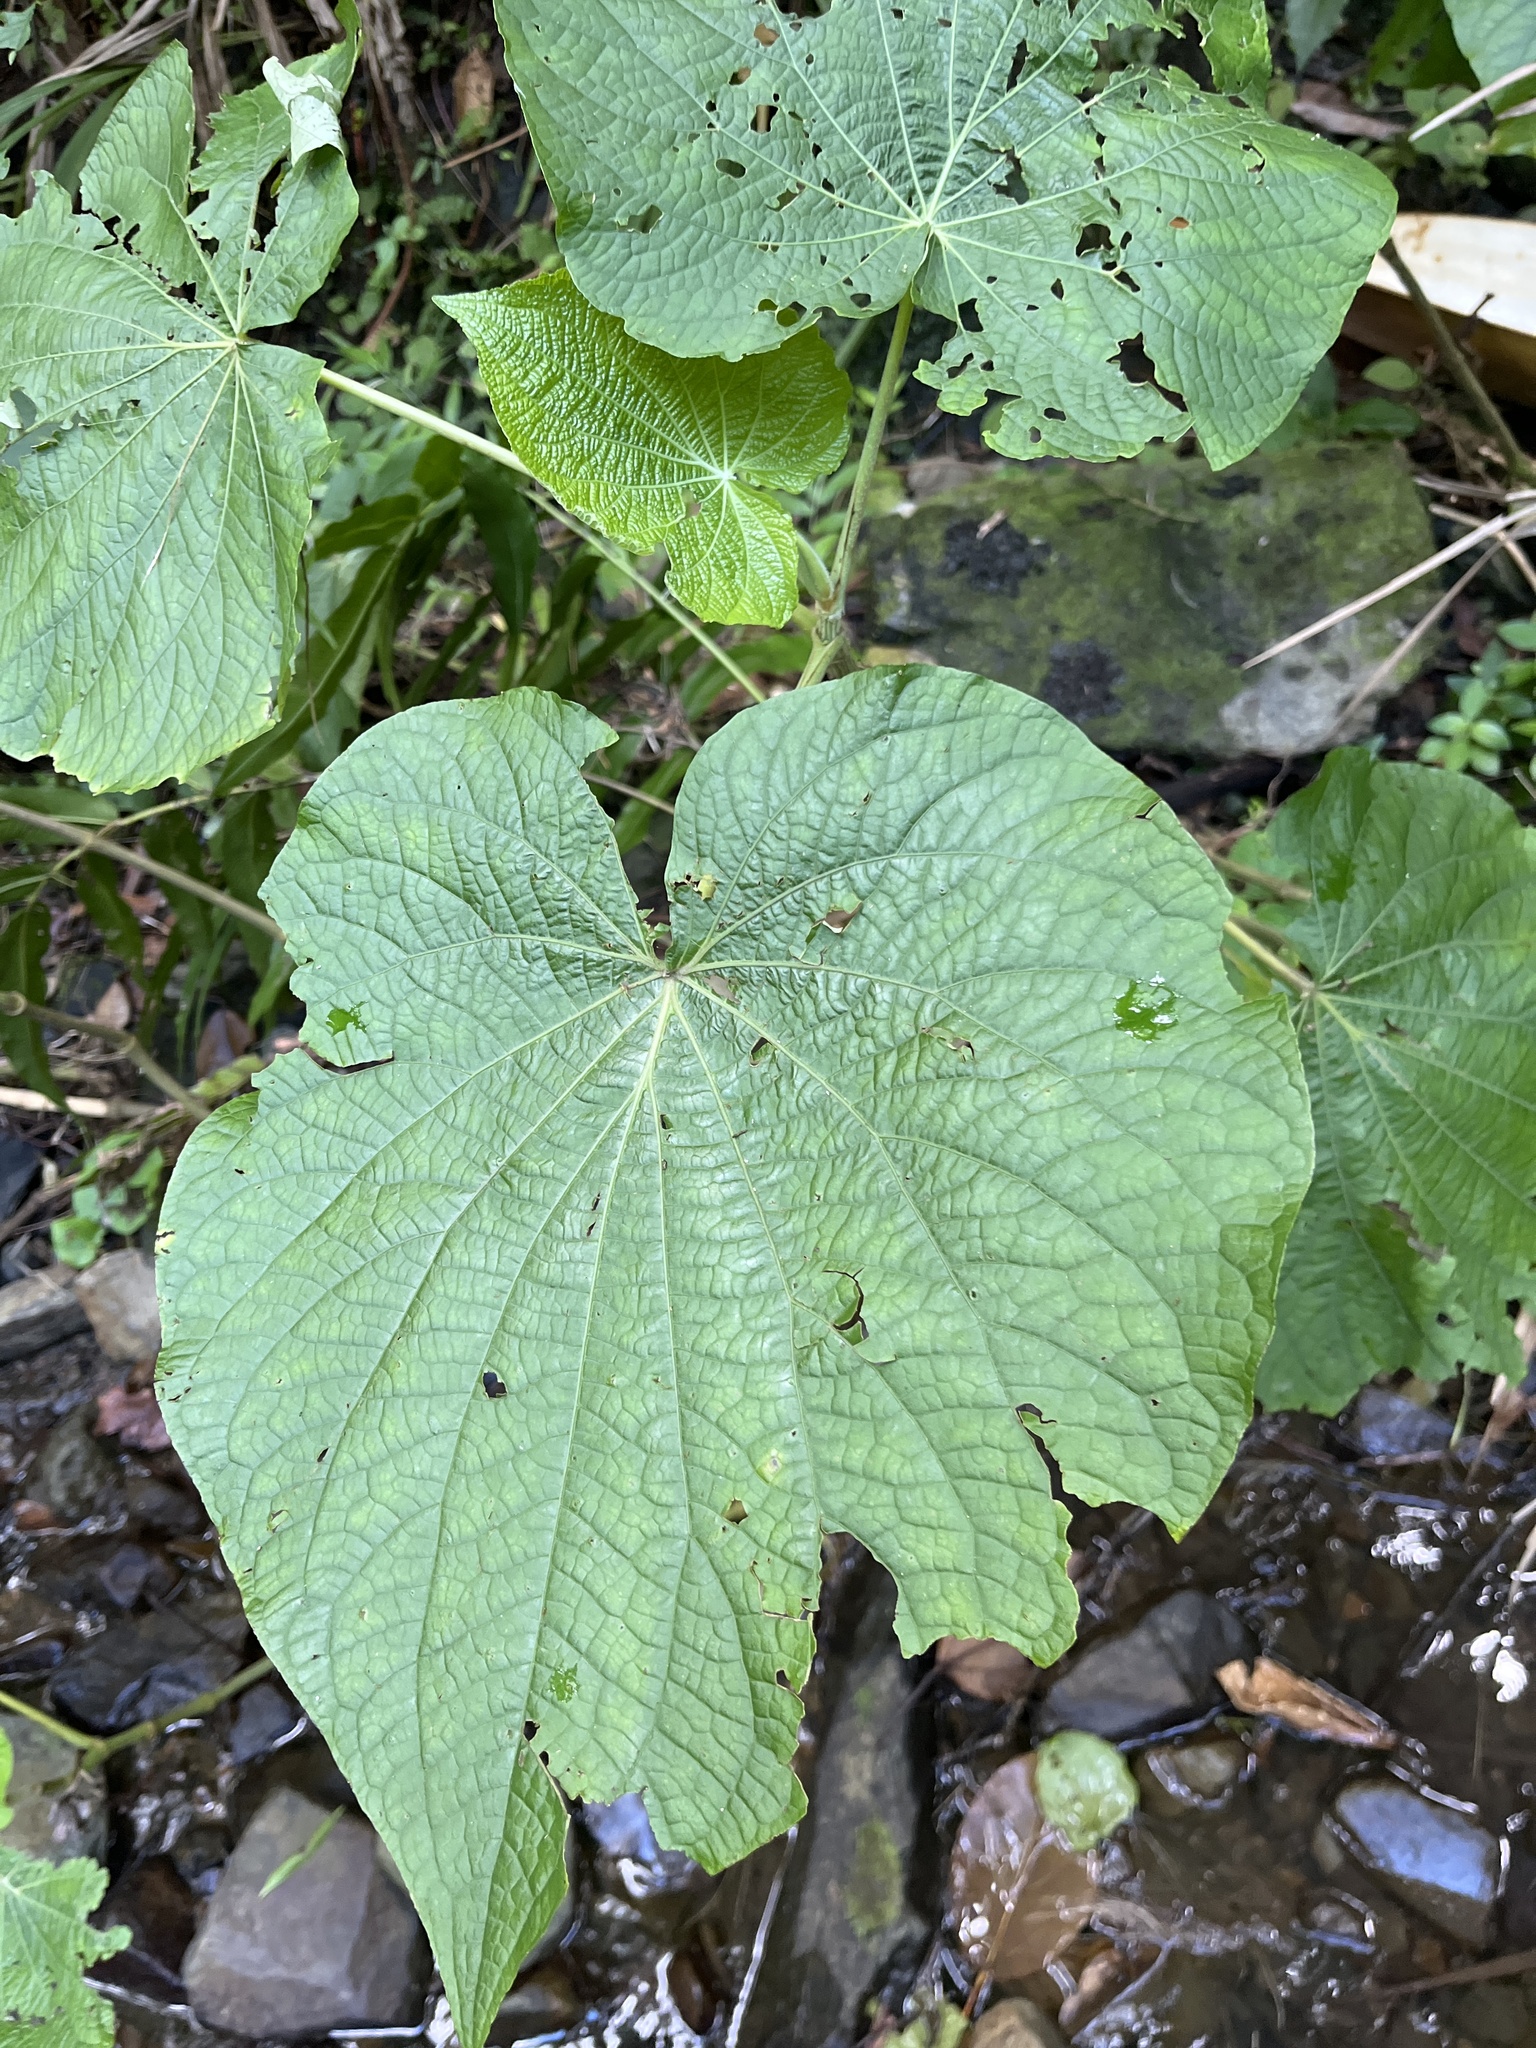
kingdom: Plantae
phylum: Tracheophyta
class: Magnoliopsida
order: Piperales
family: Piperaceae
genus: Piper
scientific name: Piper umbellatum
